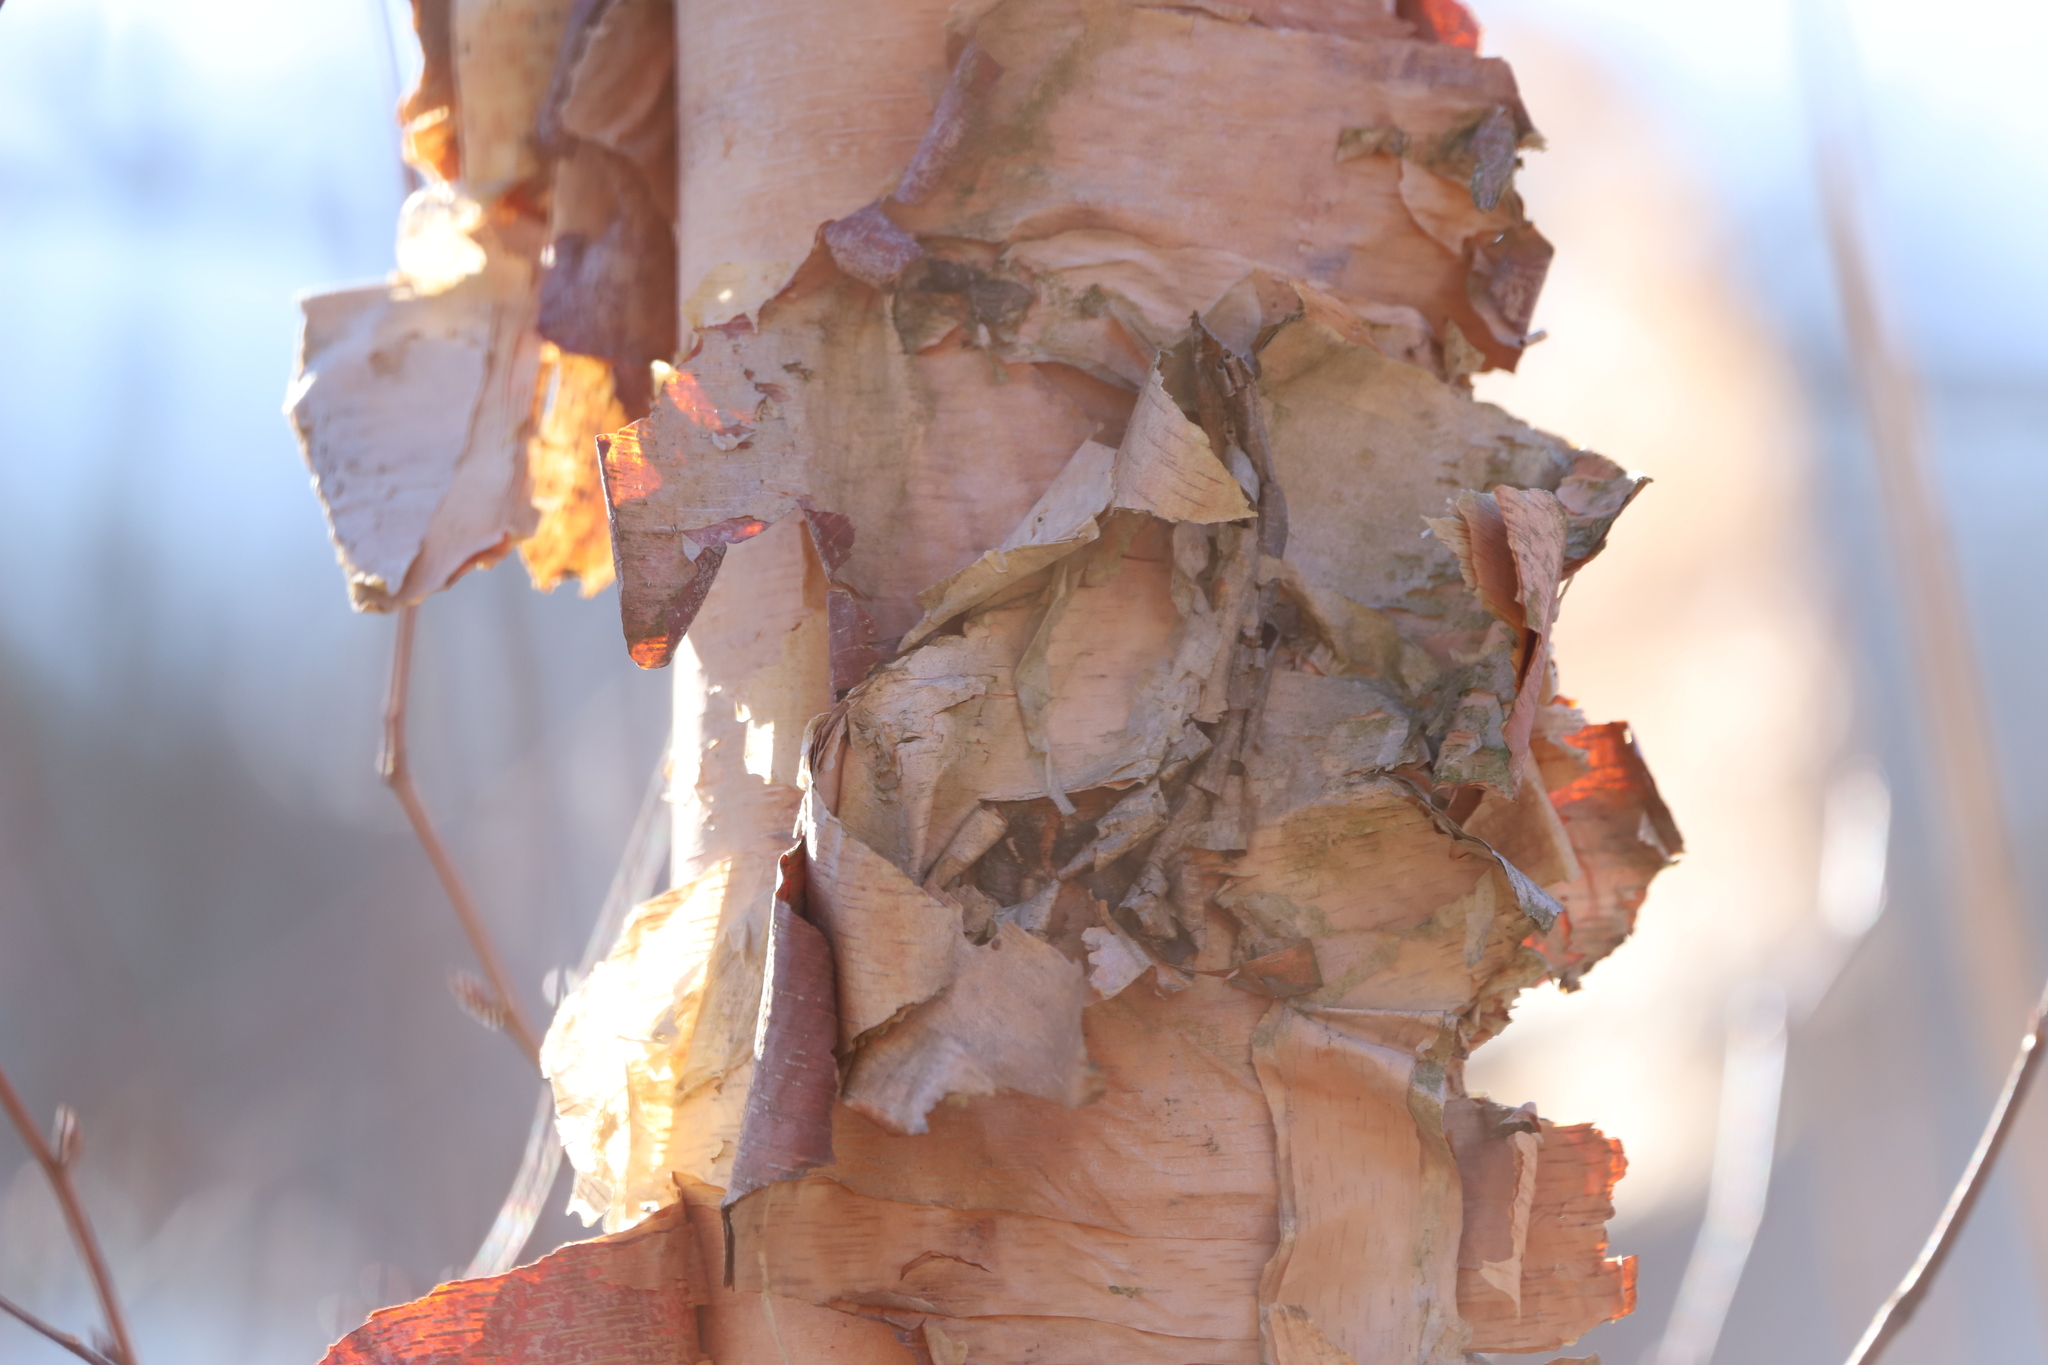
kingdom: Plantae
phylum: Tracheophyta
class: Magnoliopsida
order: Fagales
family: Betulaceae
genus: Betula
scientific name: Betula nigra
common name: Black birch
